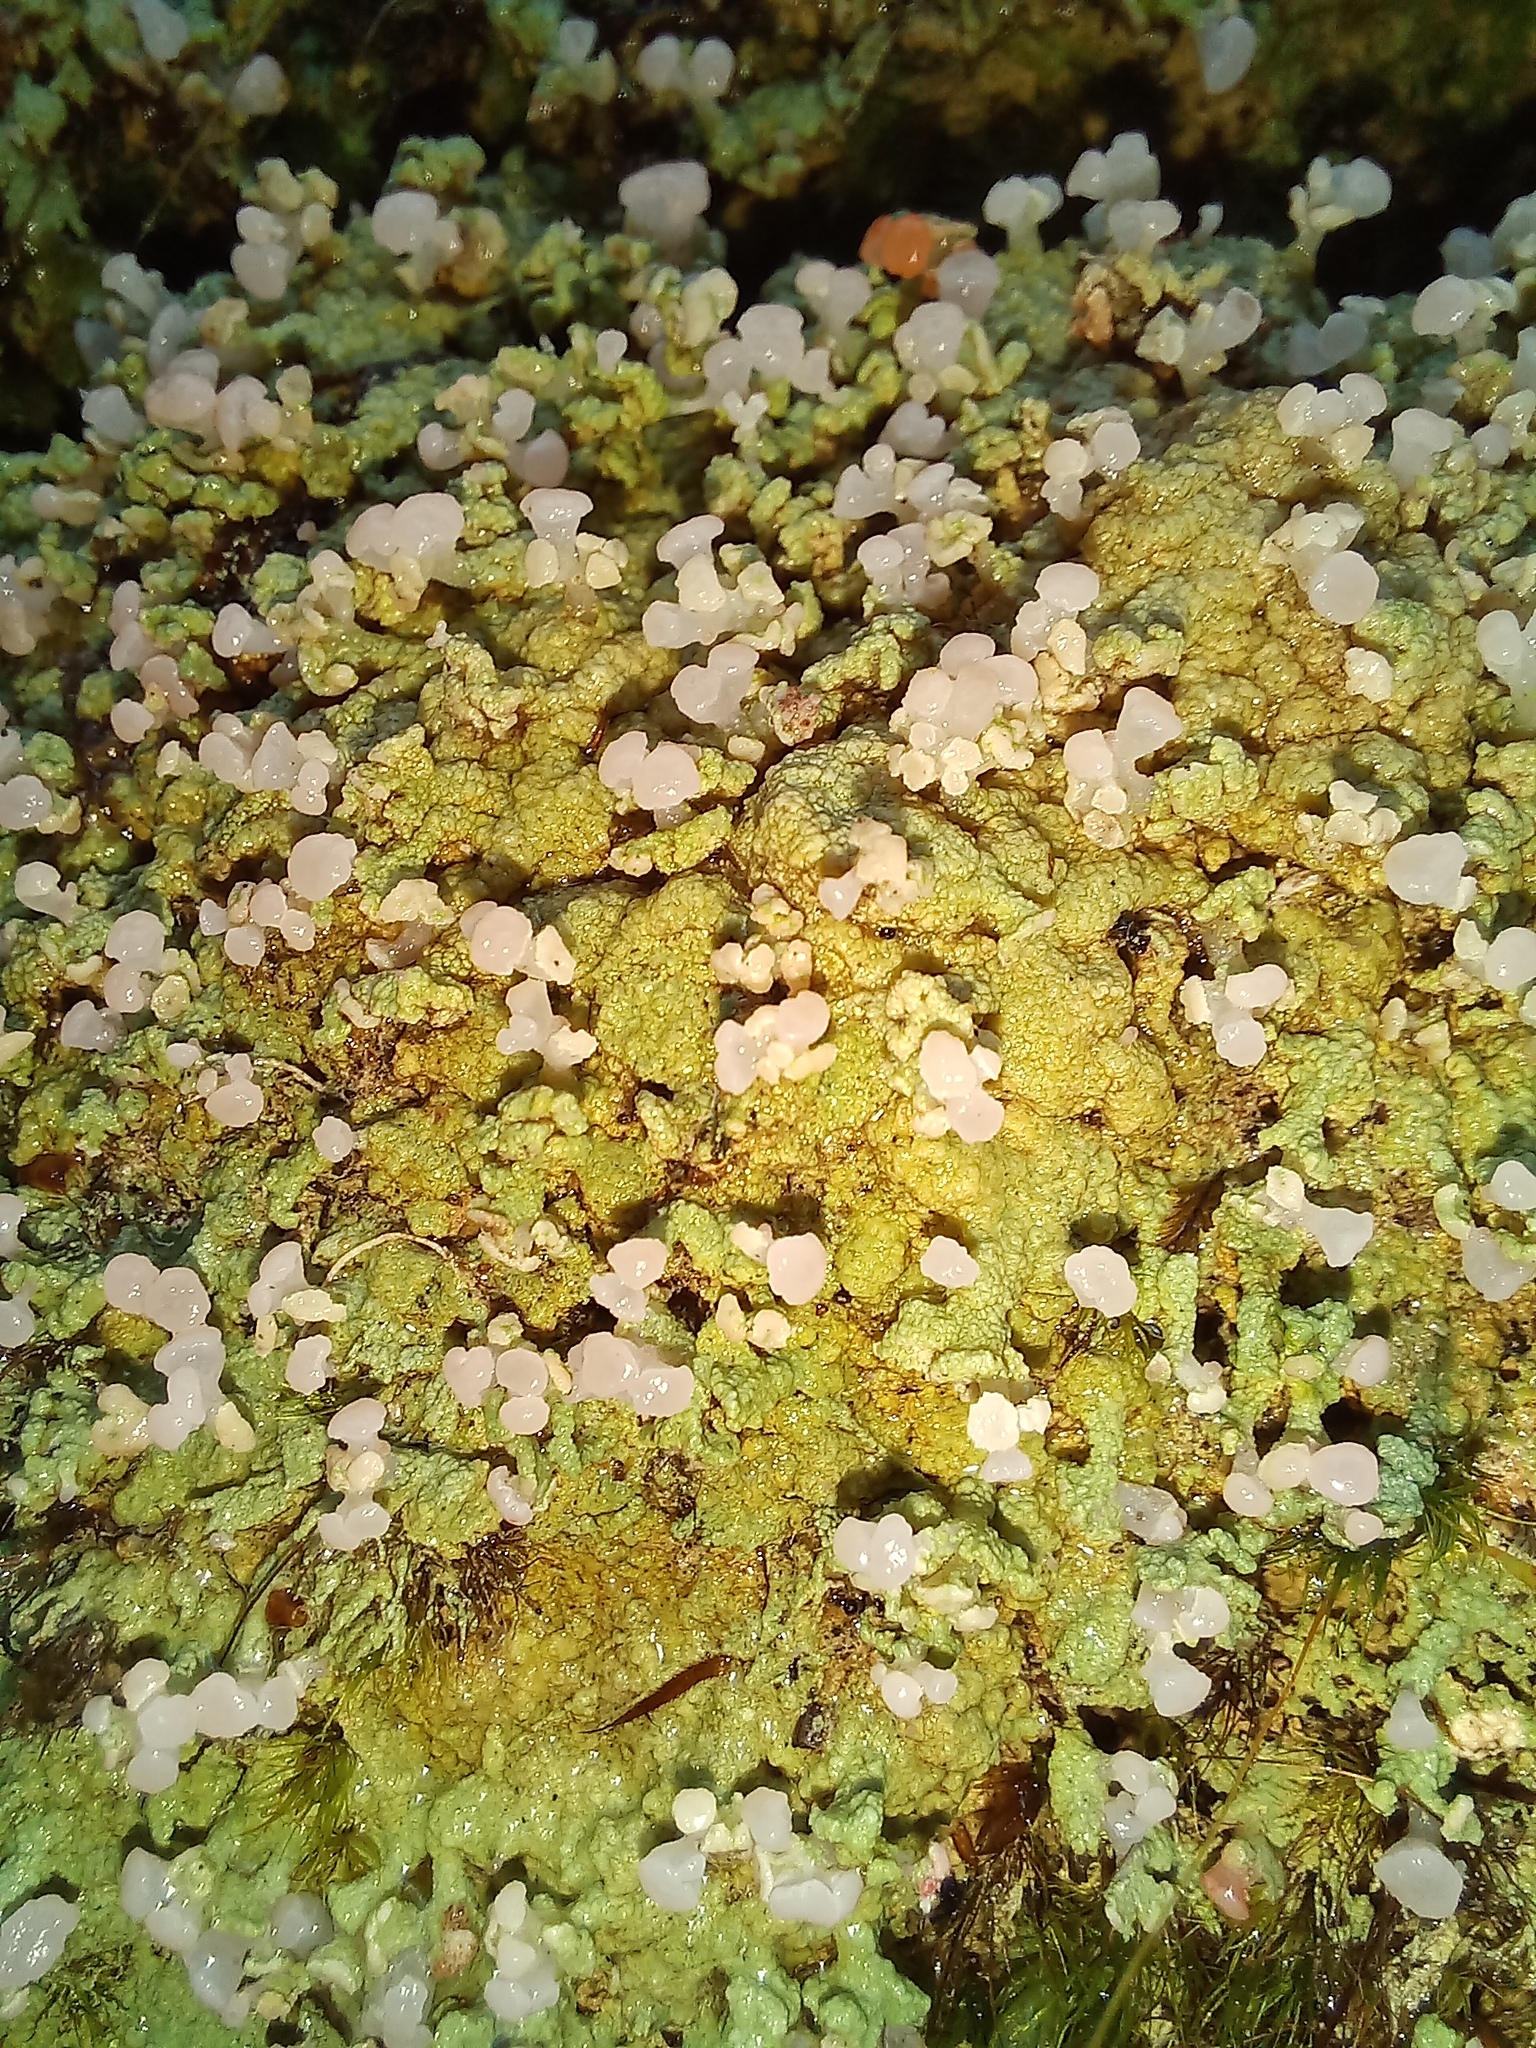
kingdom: Fungi
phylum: Ascomycota
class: Lecanoromycetes
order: Baeomycetales
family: Baeomycetaceae
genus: Baeomyces
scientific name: Baeomyces heteromorphus
